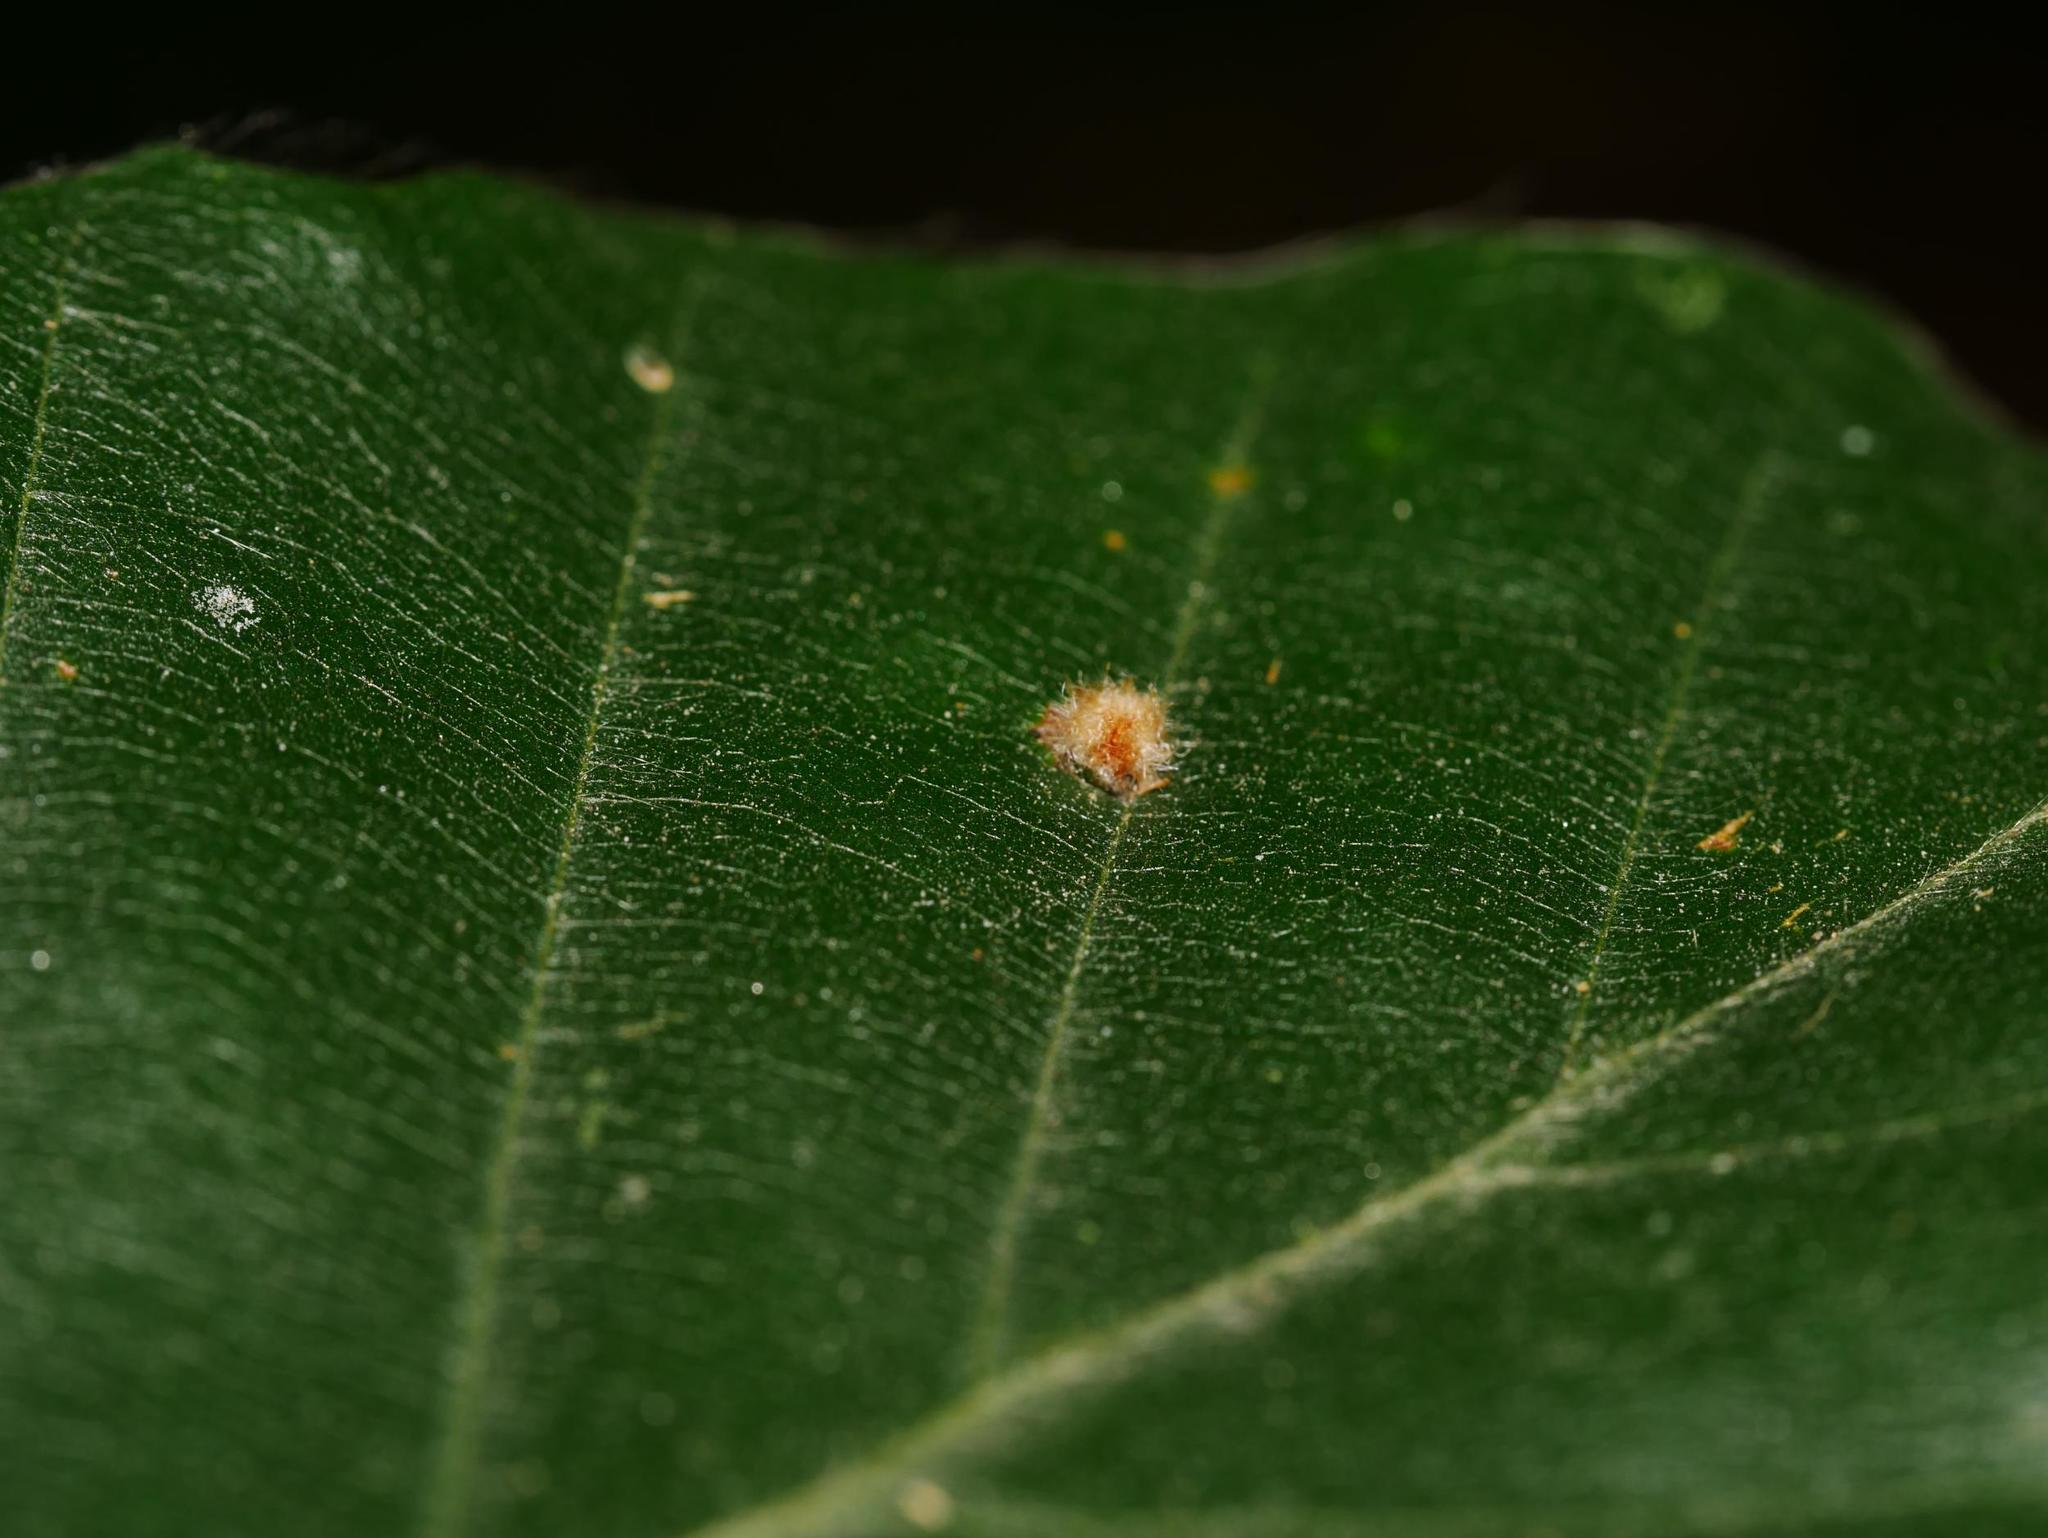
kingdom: Animalia
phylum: Arthropoda
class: Insecta
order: Diptera
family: Cecidomyiidae
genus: Hartigiola
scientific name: Hartigiola annulipes
